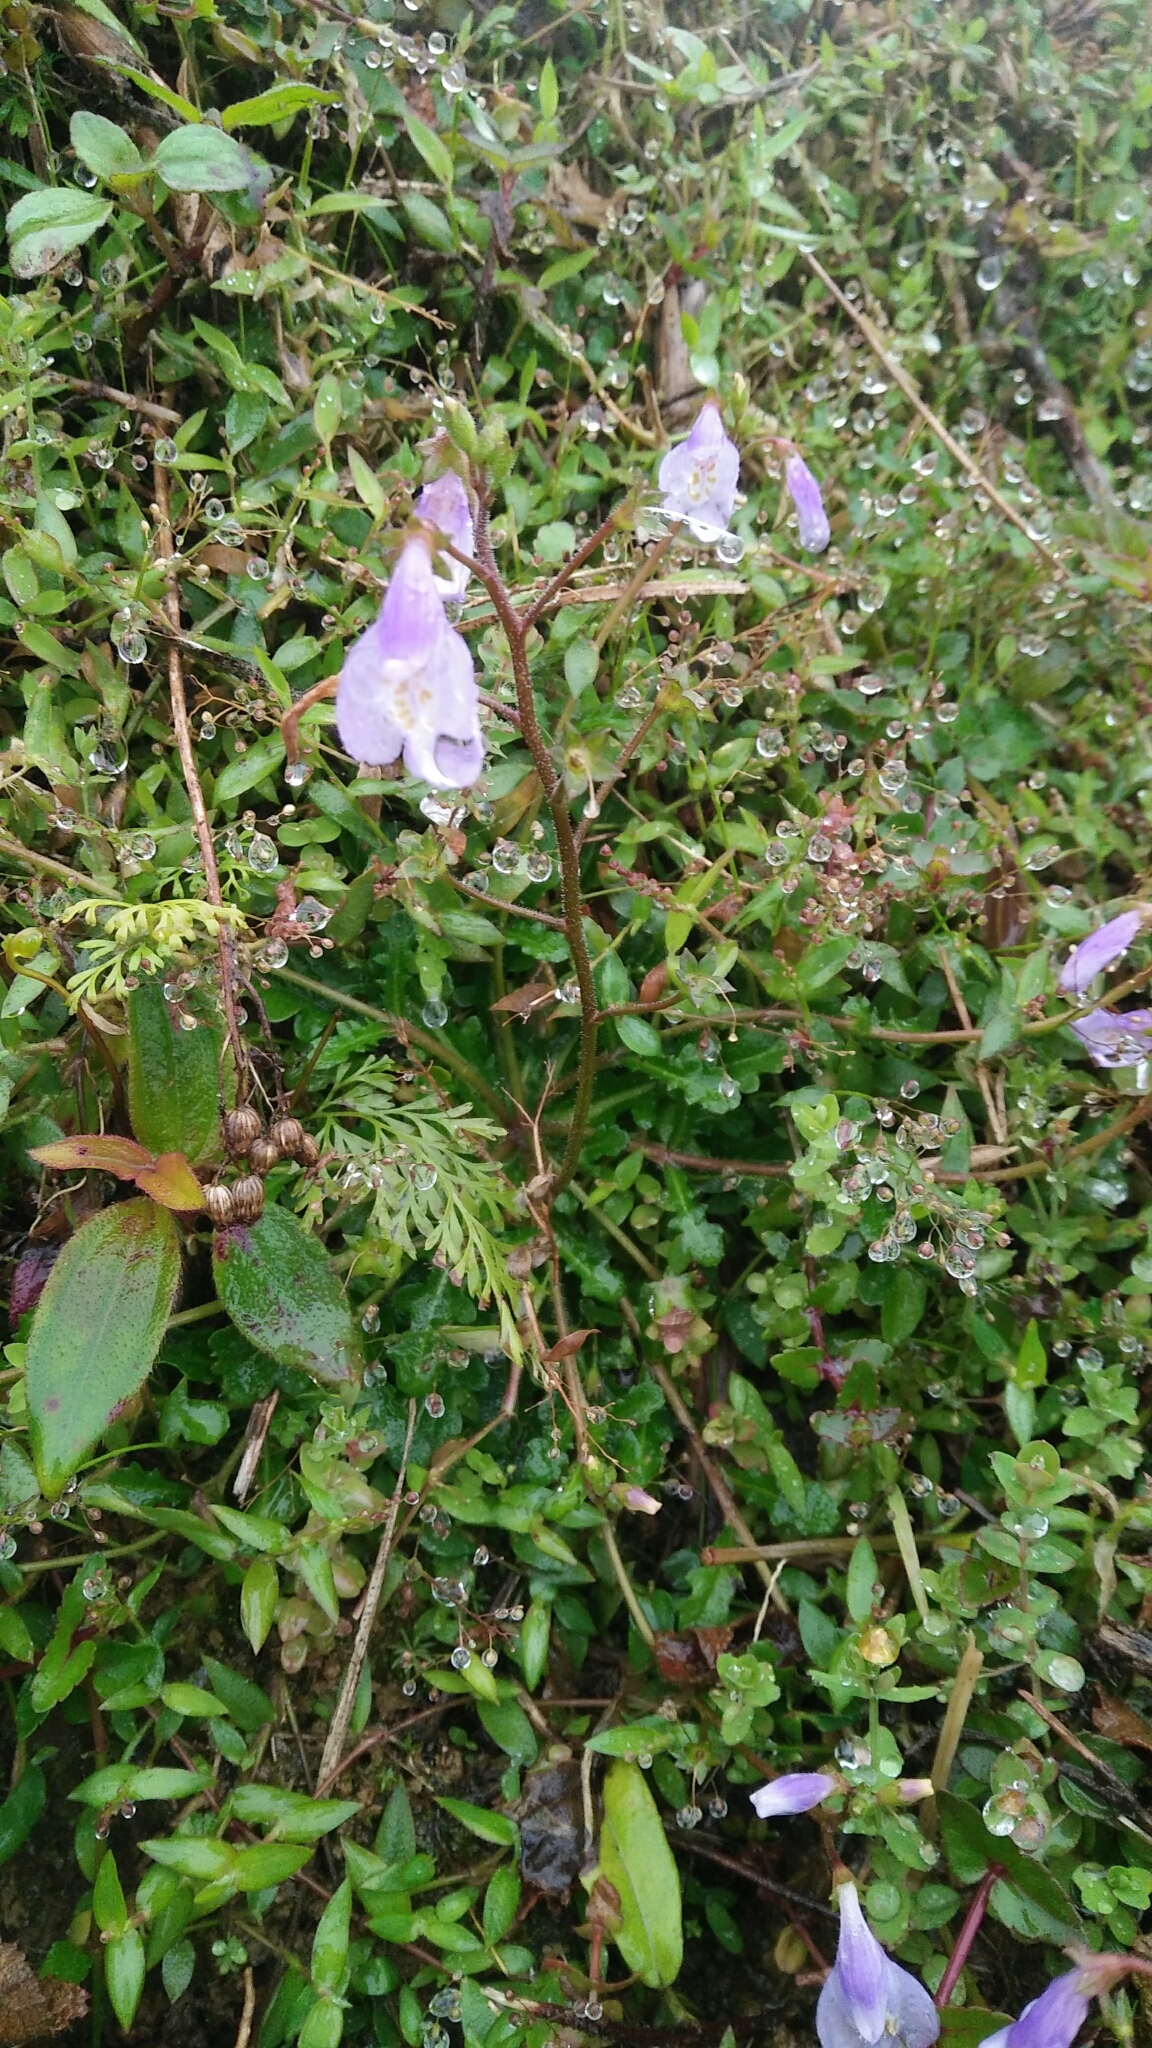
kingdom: Plantae
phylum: Tracheophyta
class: Magnoliopsida
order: Lamiales
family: Mazaceae
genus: Mazus
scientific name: Mazus fauriei
